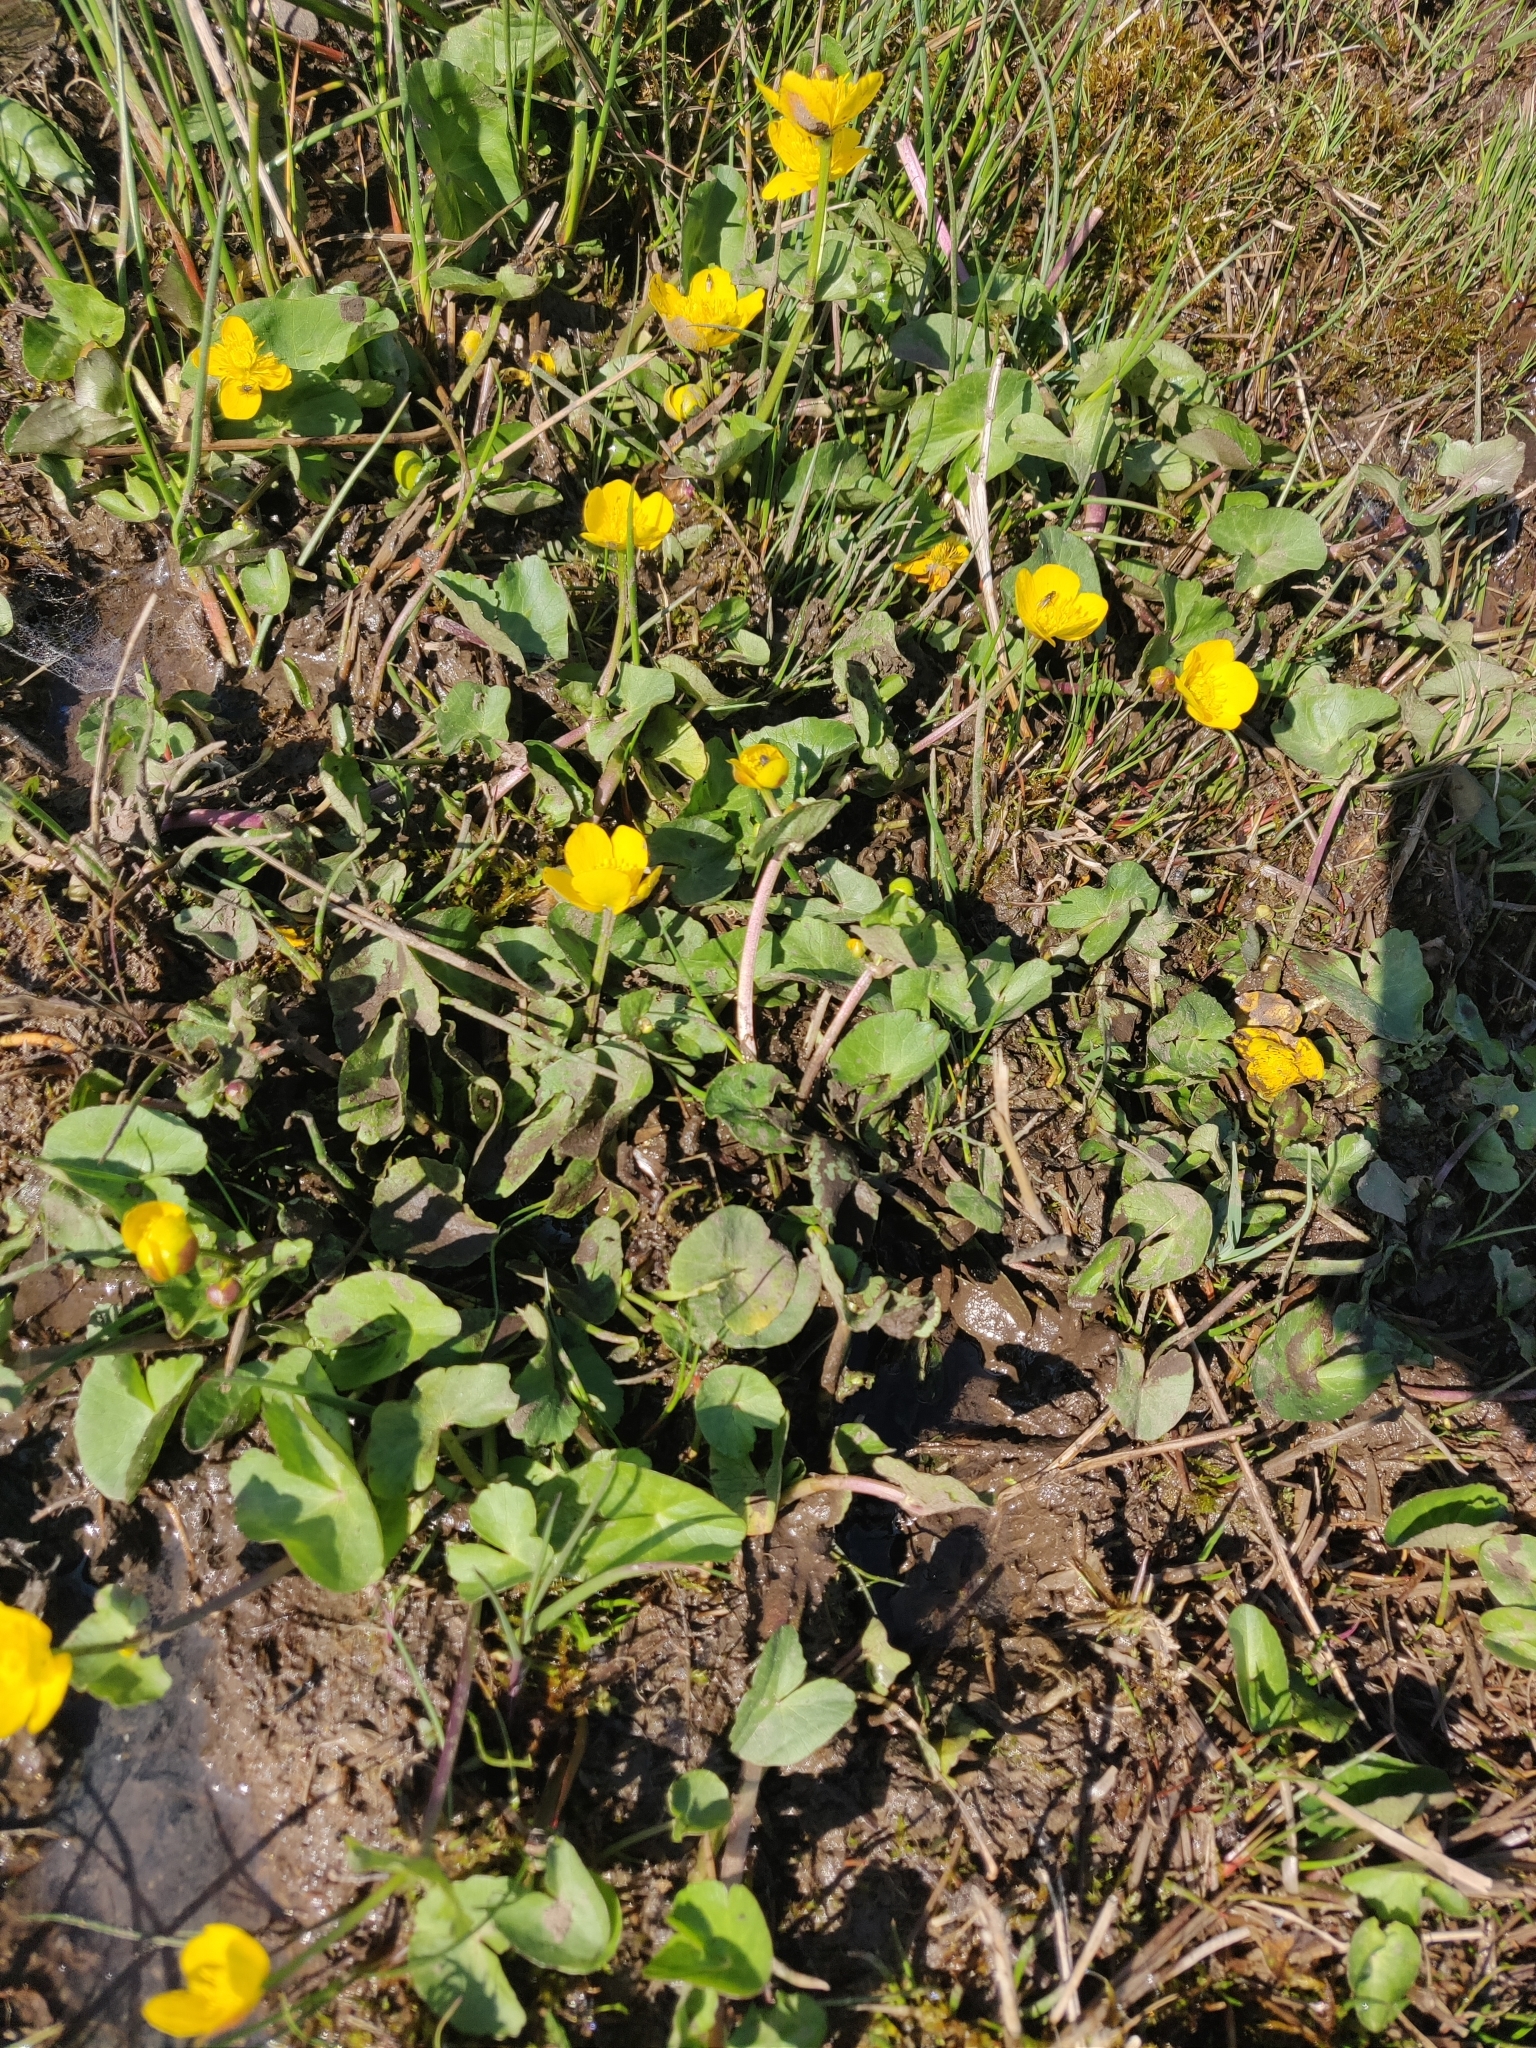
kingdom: Plantae
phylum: Tracheophyta
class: Magnoliopsida
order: Ranunculales
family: Ranunculaceae
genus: Caltha
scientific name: Caltha palustris
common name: Marsh marigold
